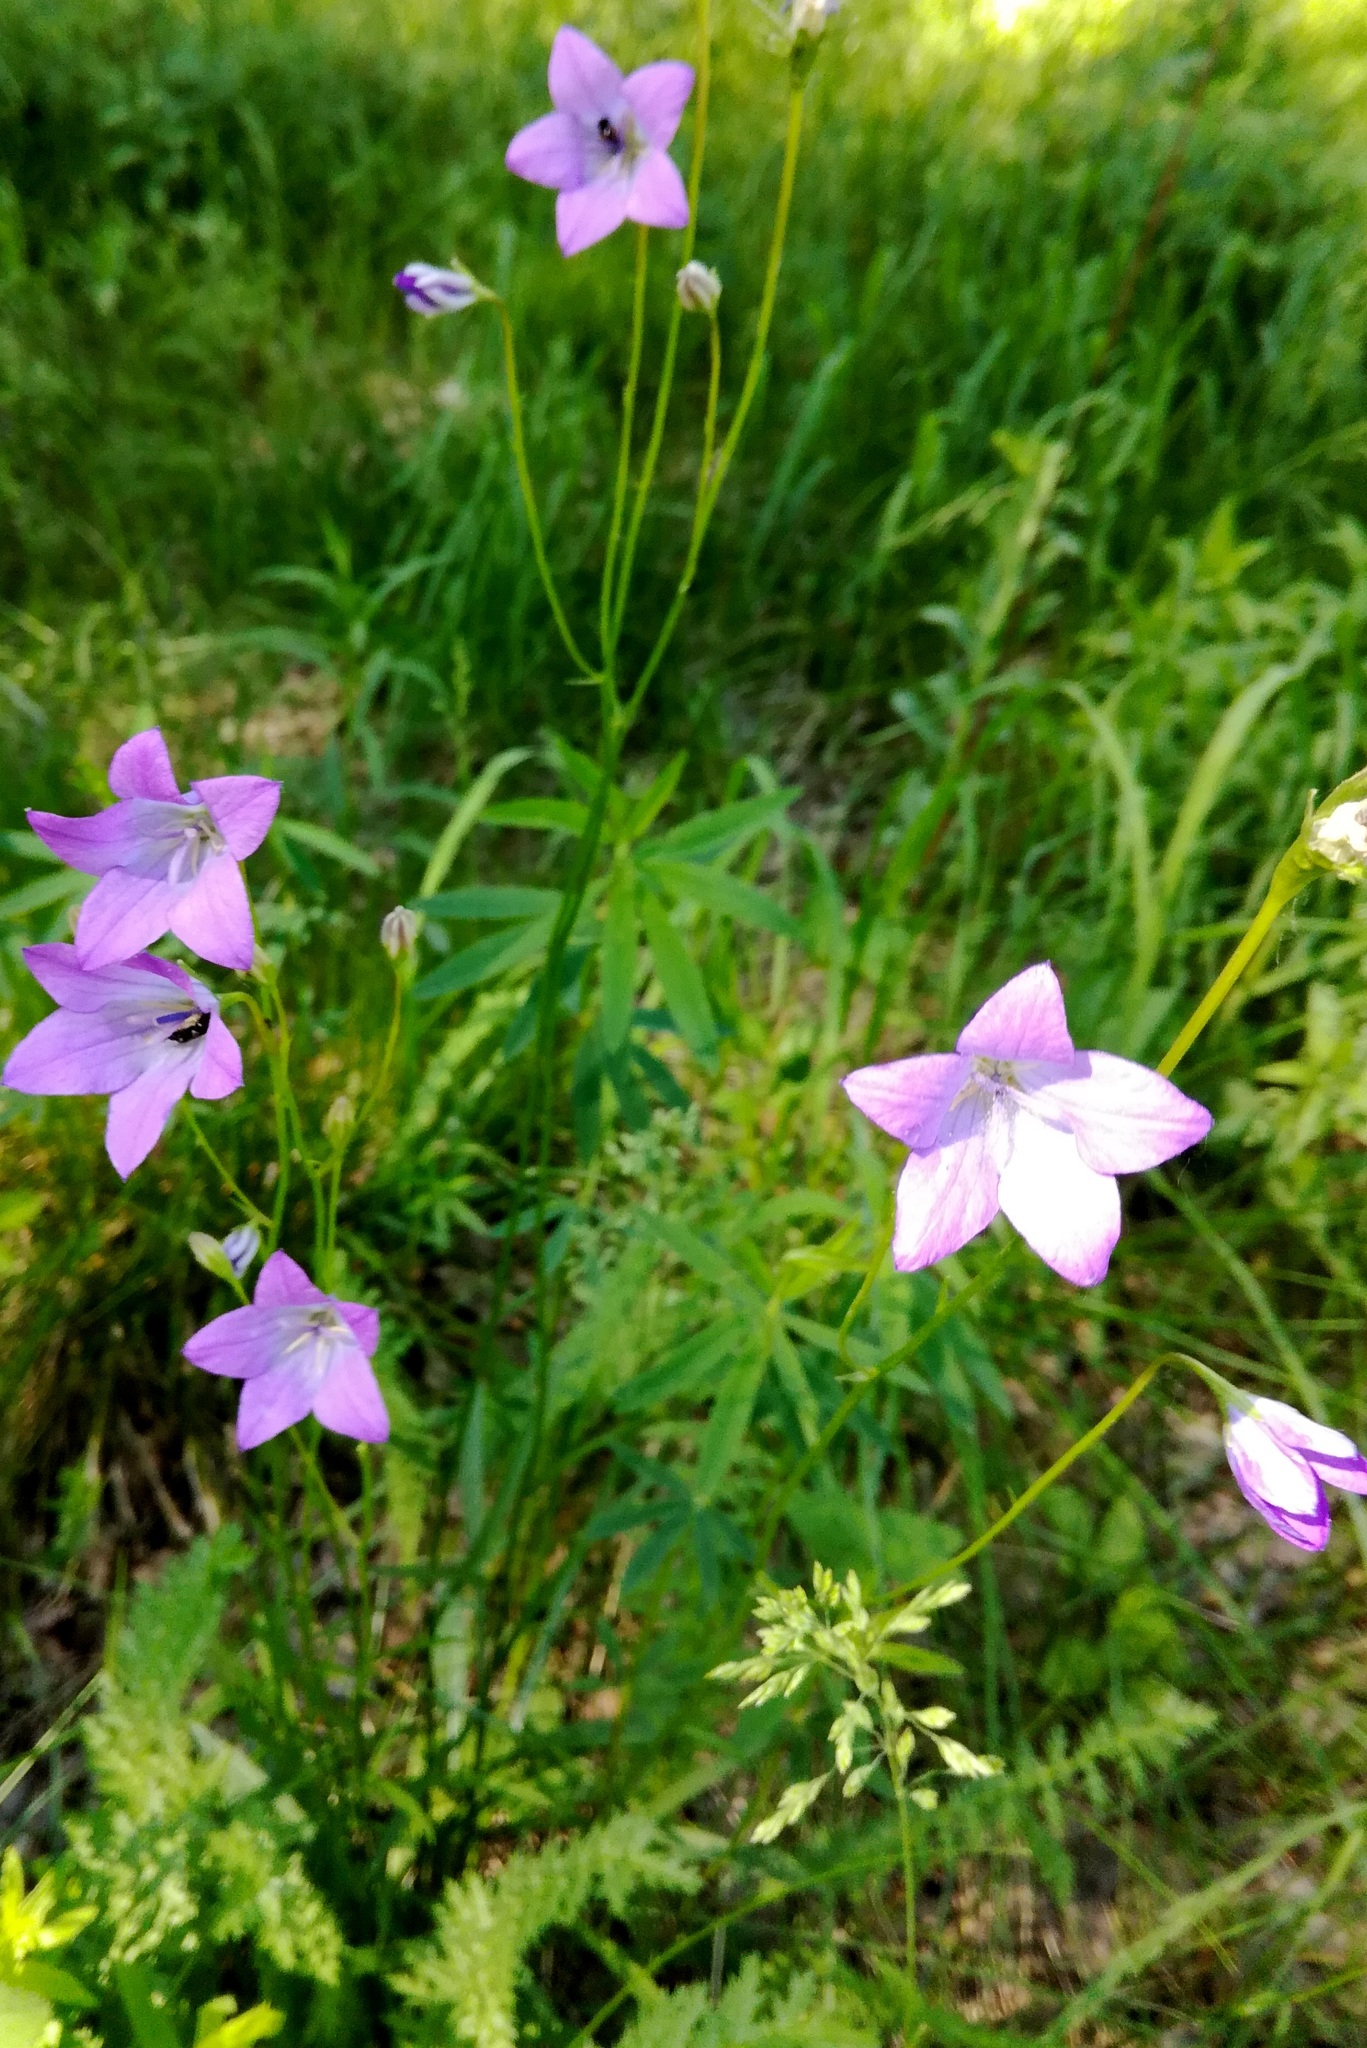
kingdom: Plantae
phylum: Tracheophyta
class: Magnoliopsida
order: Asterales
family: Campanulaceae
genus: Campanula
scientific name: Campanula patula
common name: Spreading bellflower
